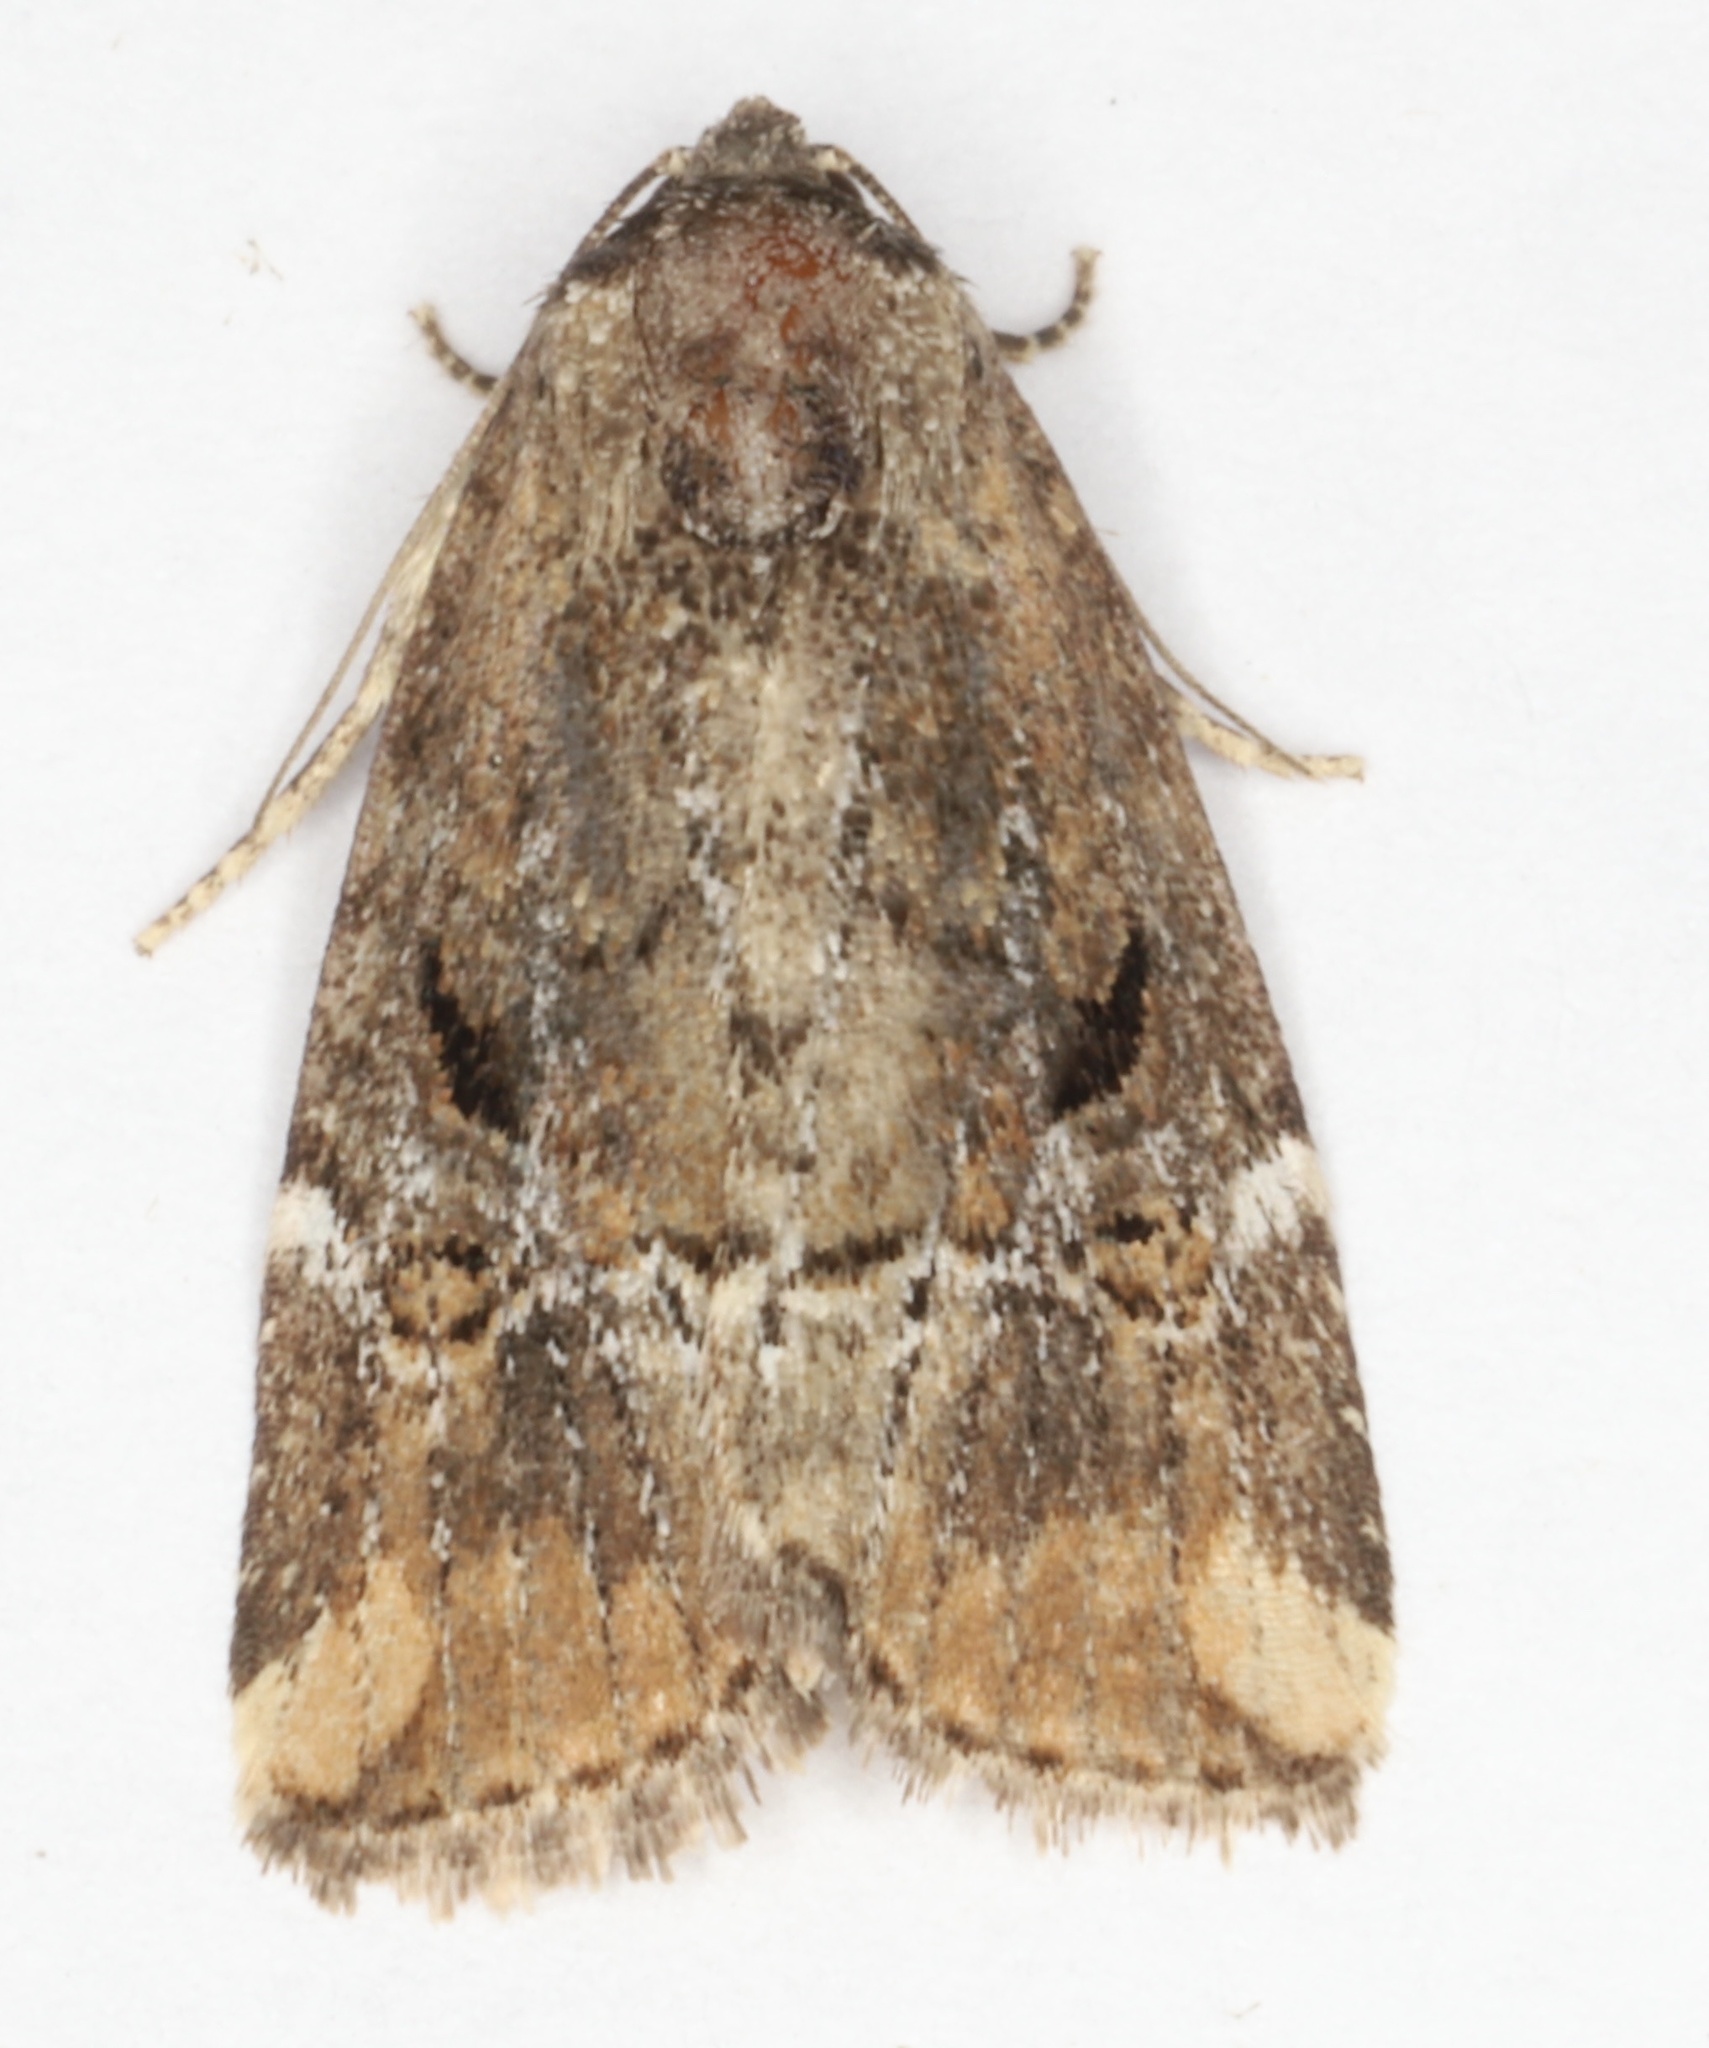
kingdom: Animalia
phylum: Arthropoda
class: Insecta
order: Lepidoptera
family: Noctuidae
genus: Elaphria
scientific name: Elaphria versicolor
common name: Fir harlequin
